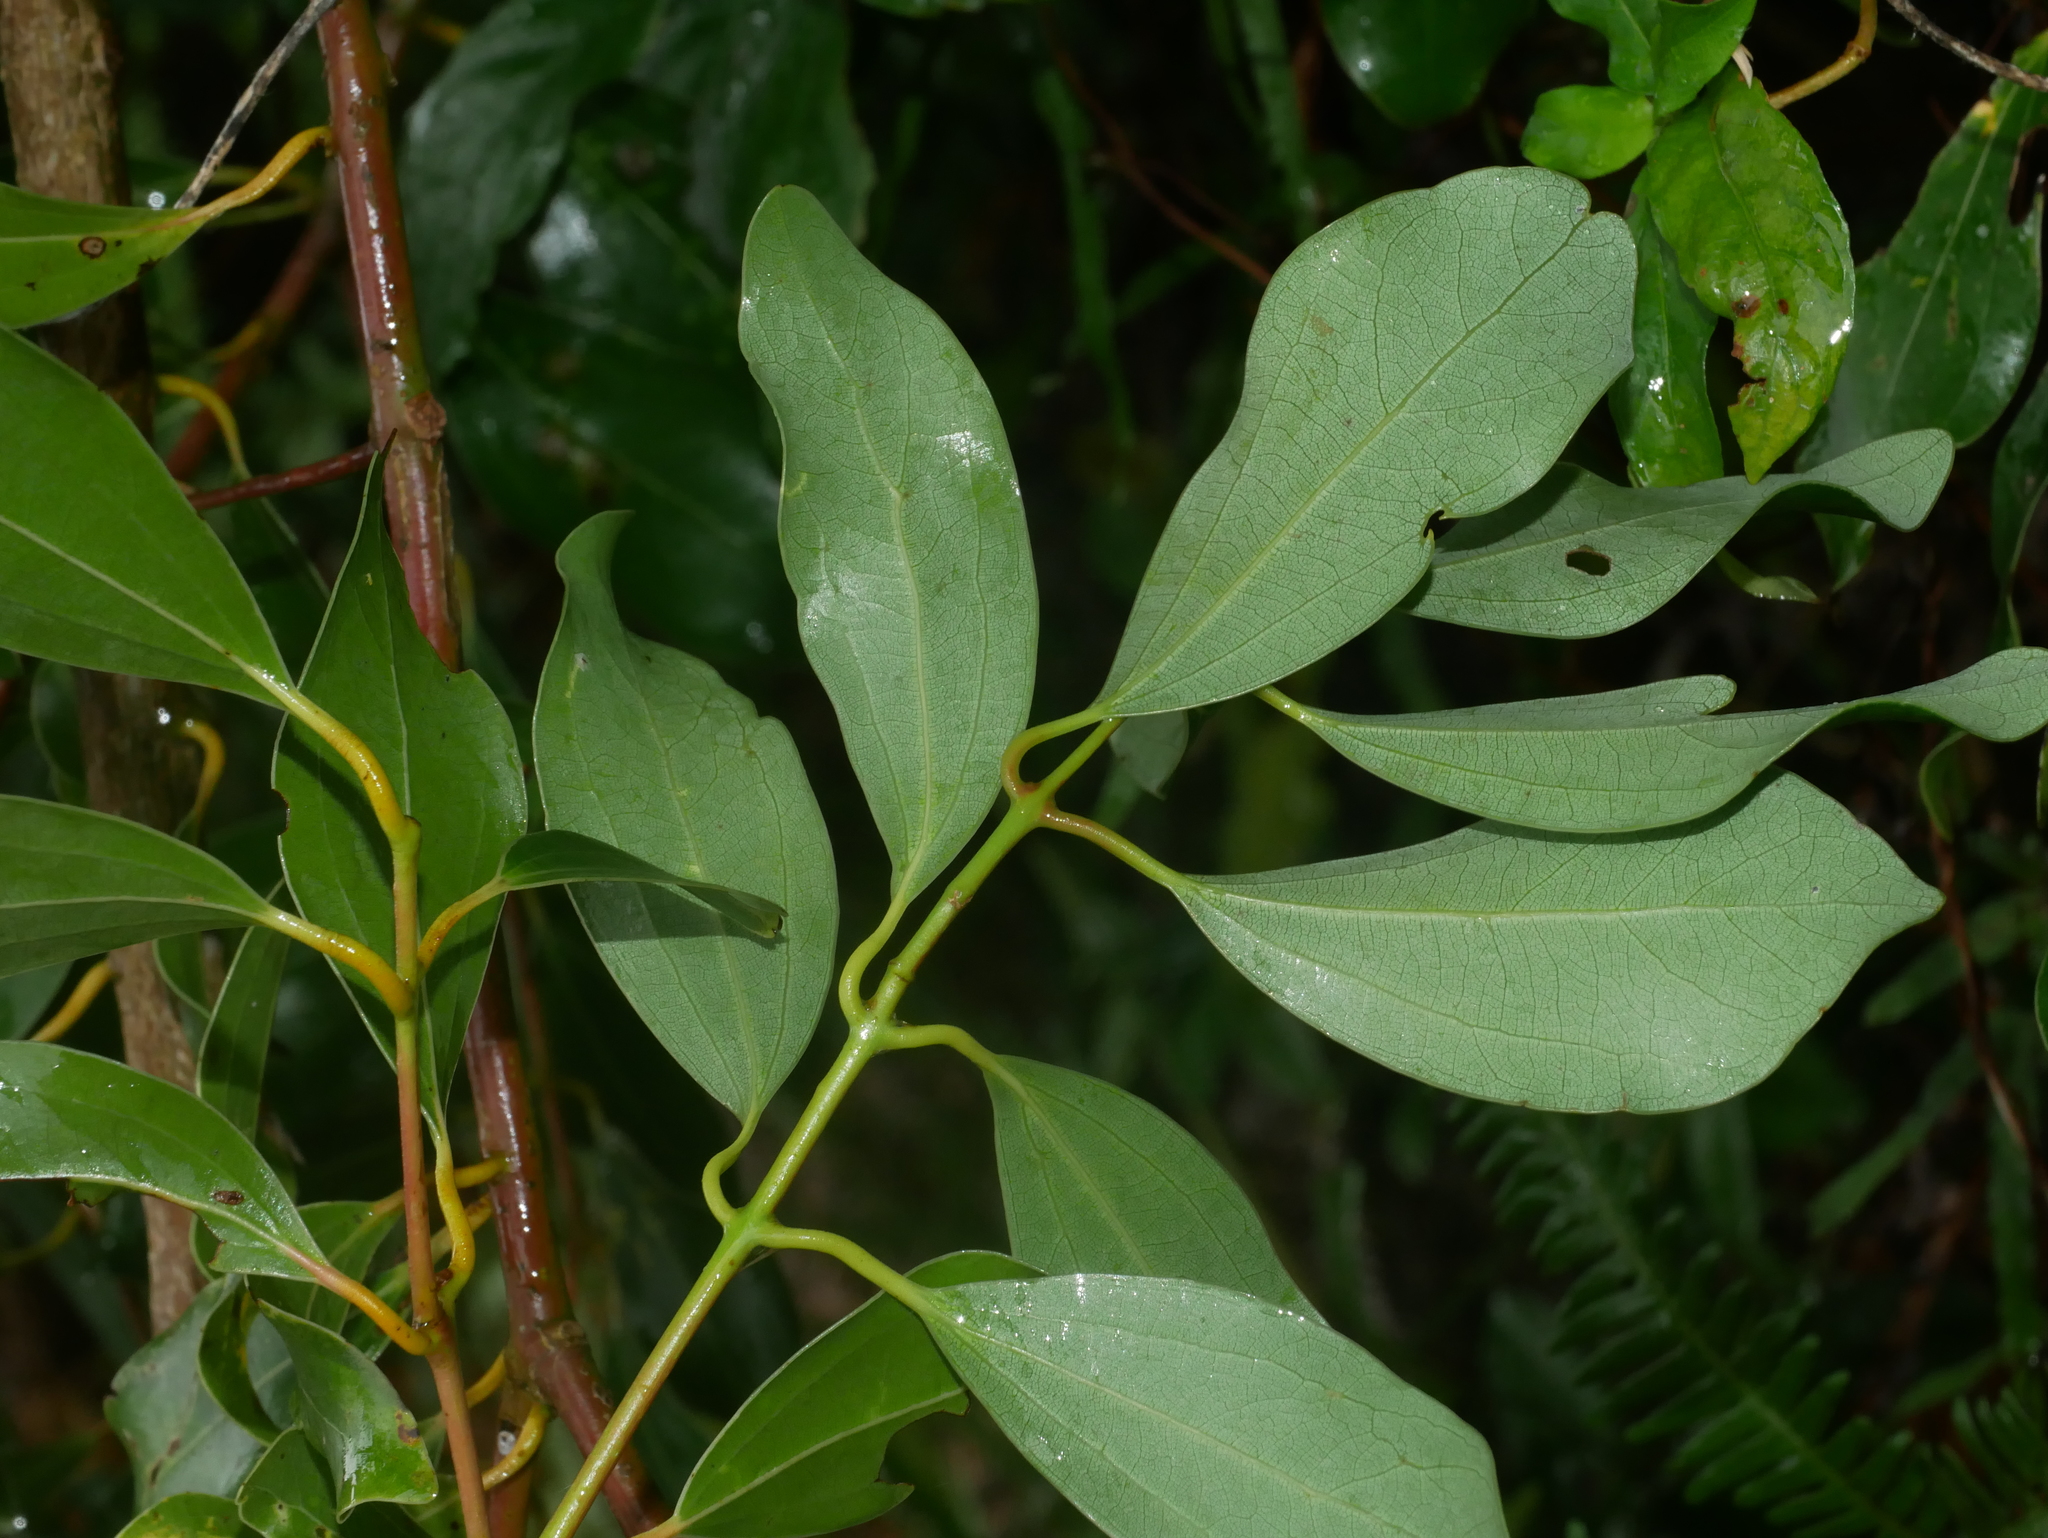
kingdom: Plantae
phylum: Tracheophyta
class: Magnoliopsida
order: Laurales
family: Lauraceae
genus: Cinnamomum
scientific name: Cinnamomum reticulatum
